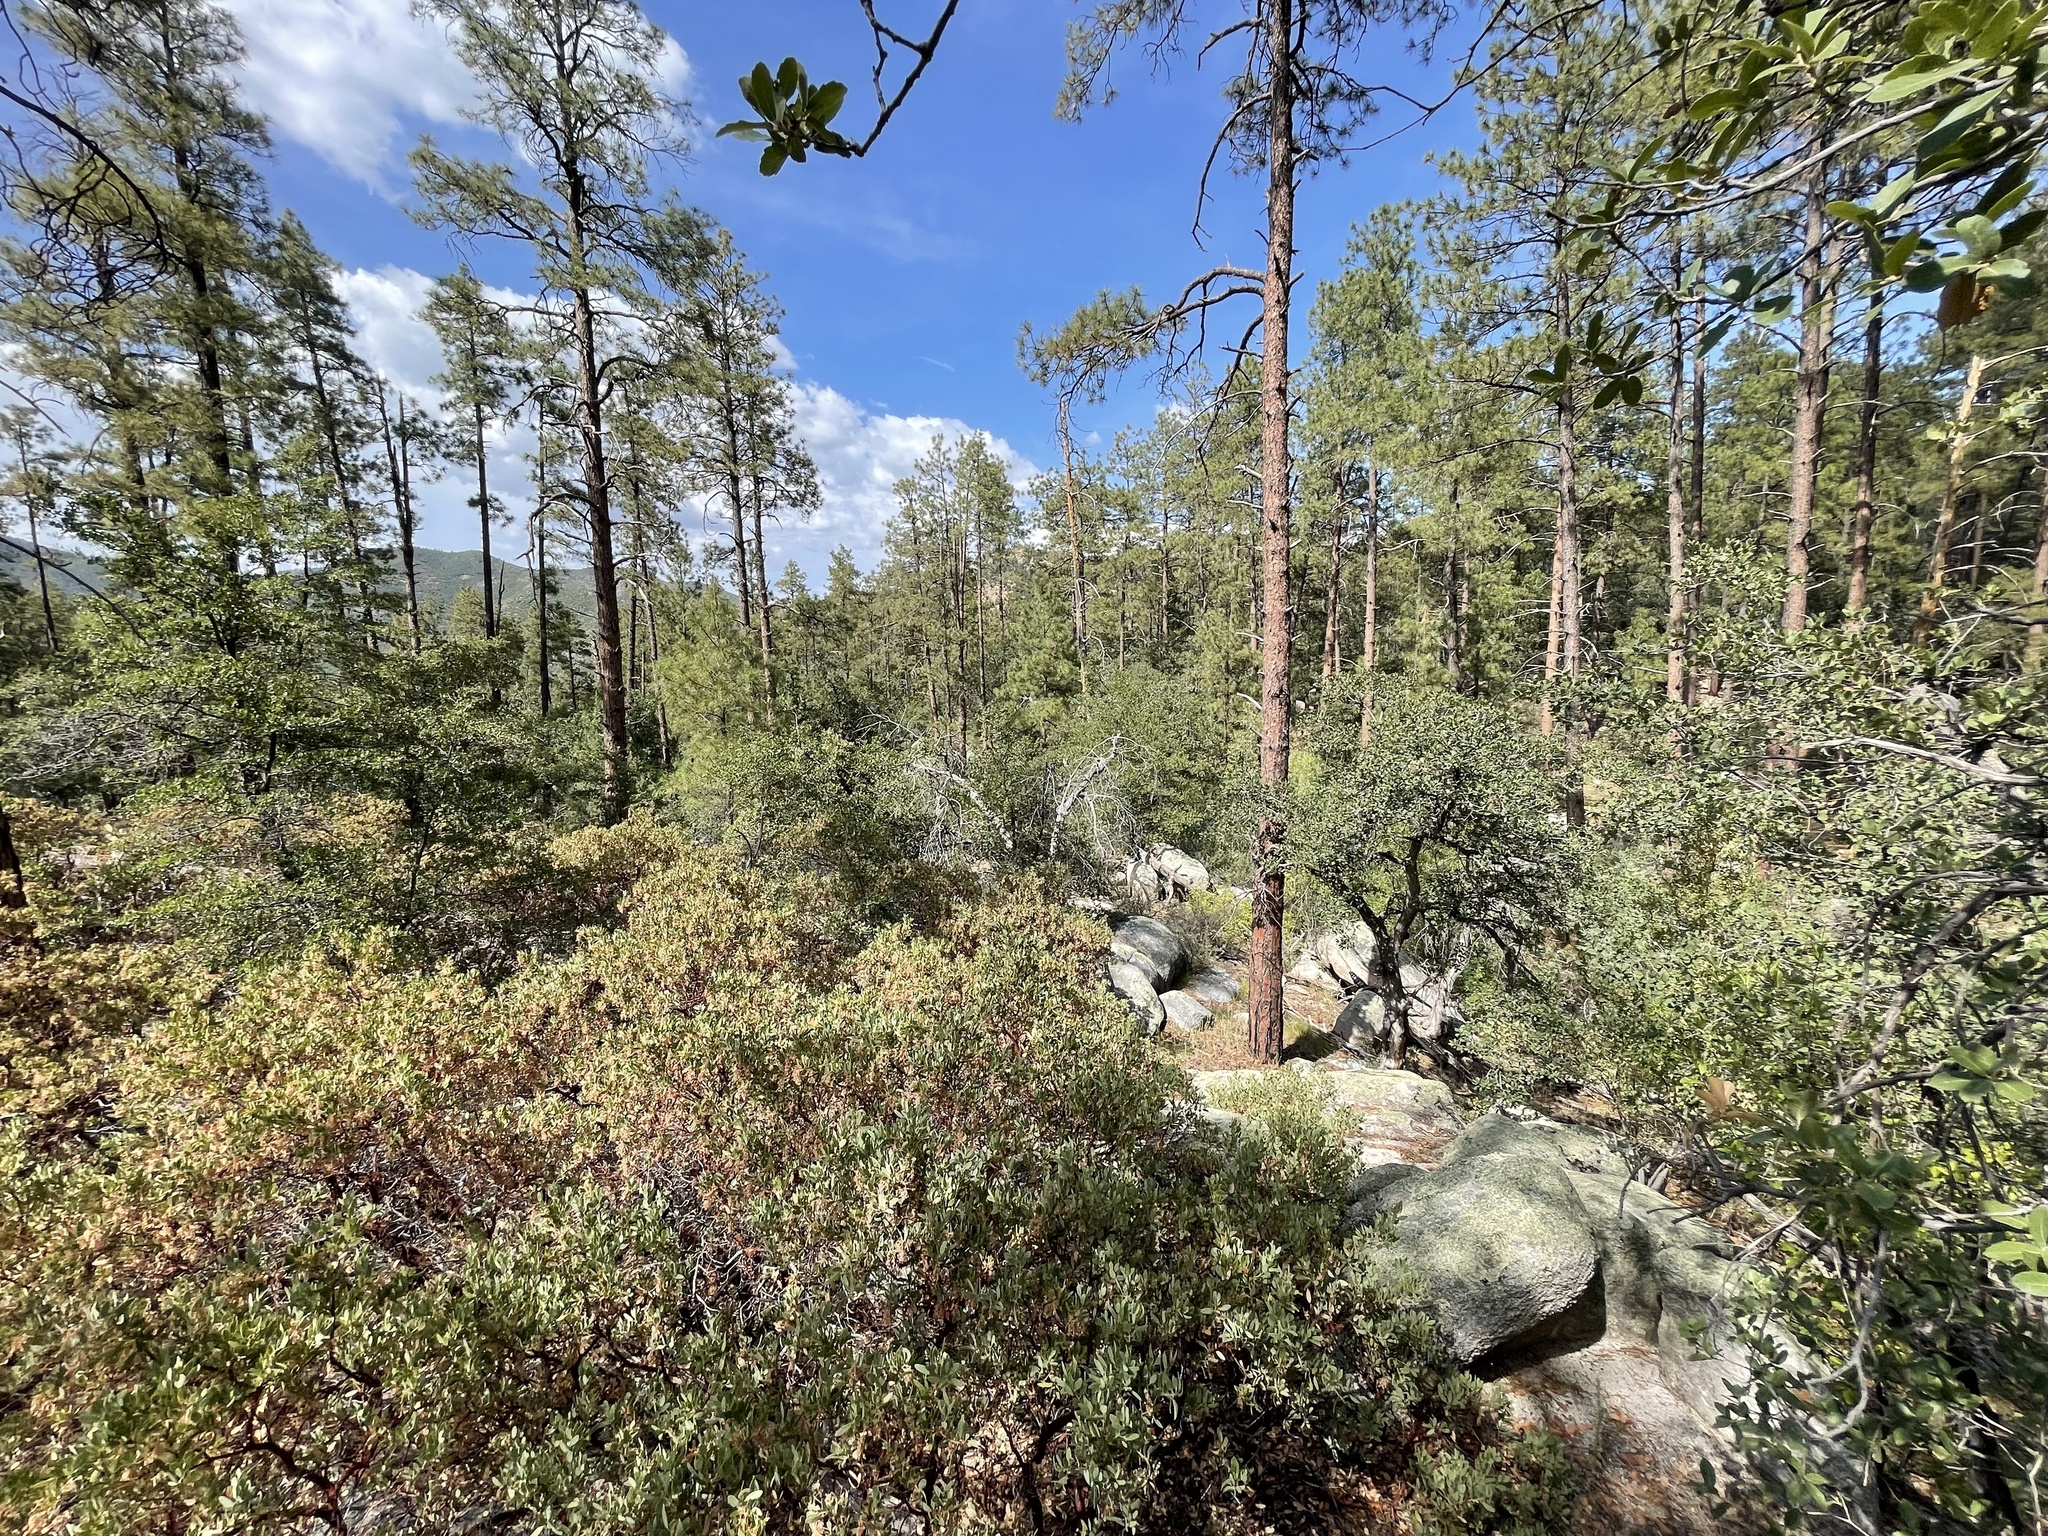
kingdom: Plantae
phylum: Tracheophyta
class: Magnoliopsida
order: Ericales
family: Ericaceae
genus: Arctostaphylos
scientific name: Arctostaphylos pringlei
